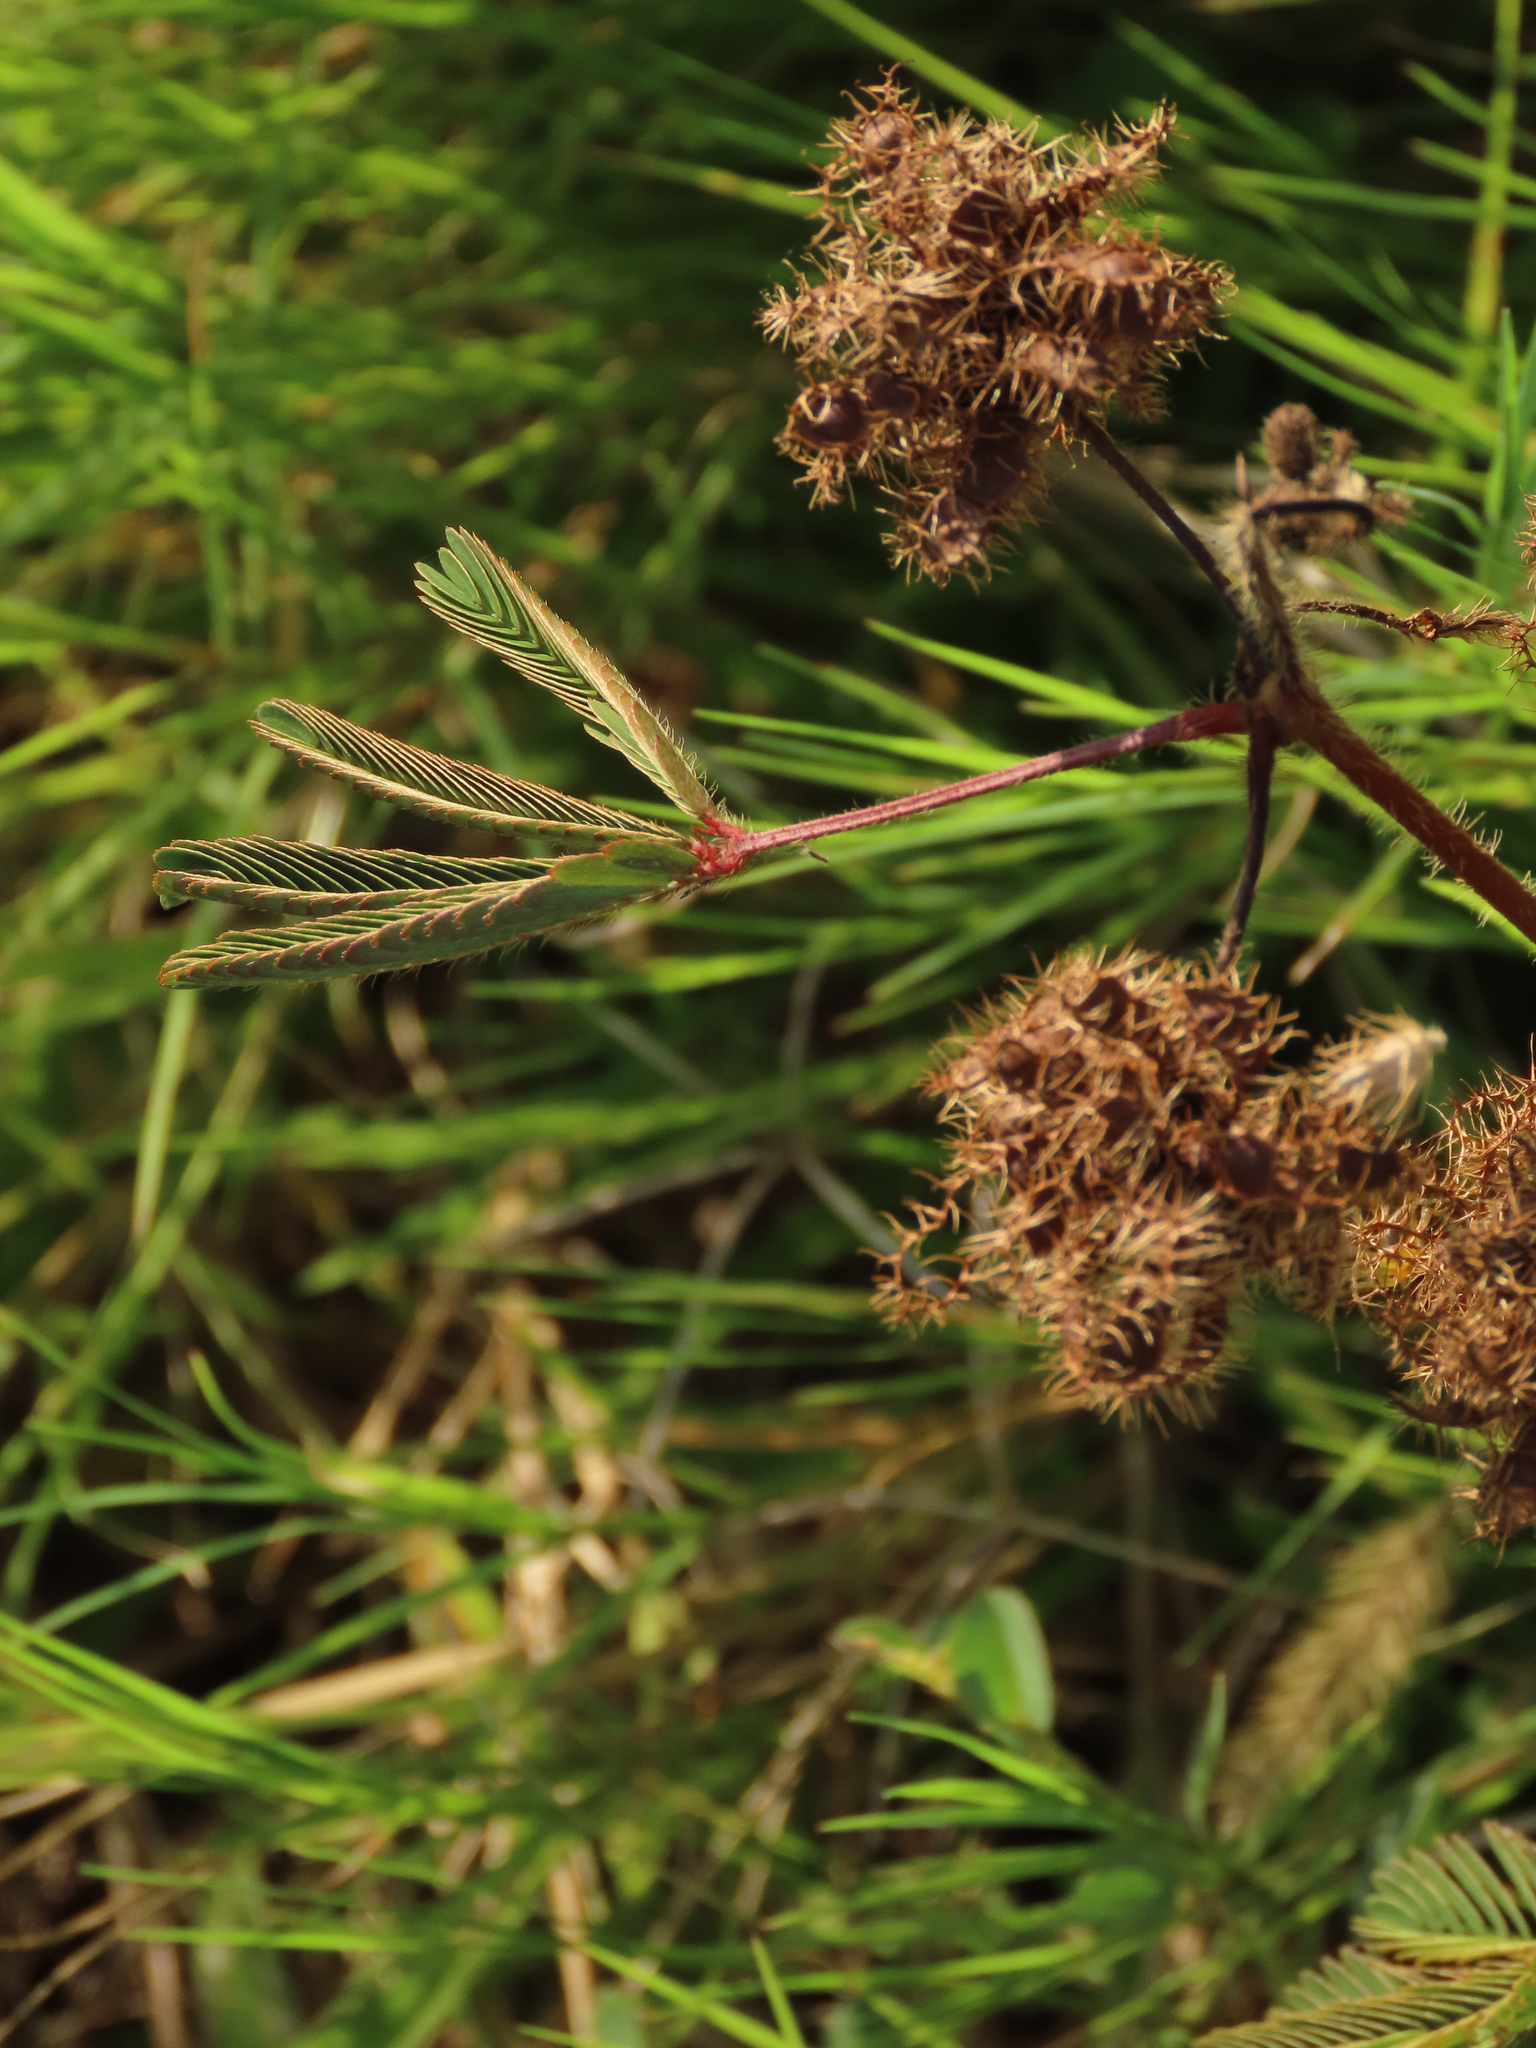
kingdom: Plantae
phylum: Tracheophyta
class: Magnoliopsida
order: Fabales
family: Fabaceae
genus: Mimosa
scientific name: Mimosa pudica
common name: Sensitive plant
